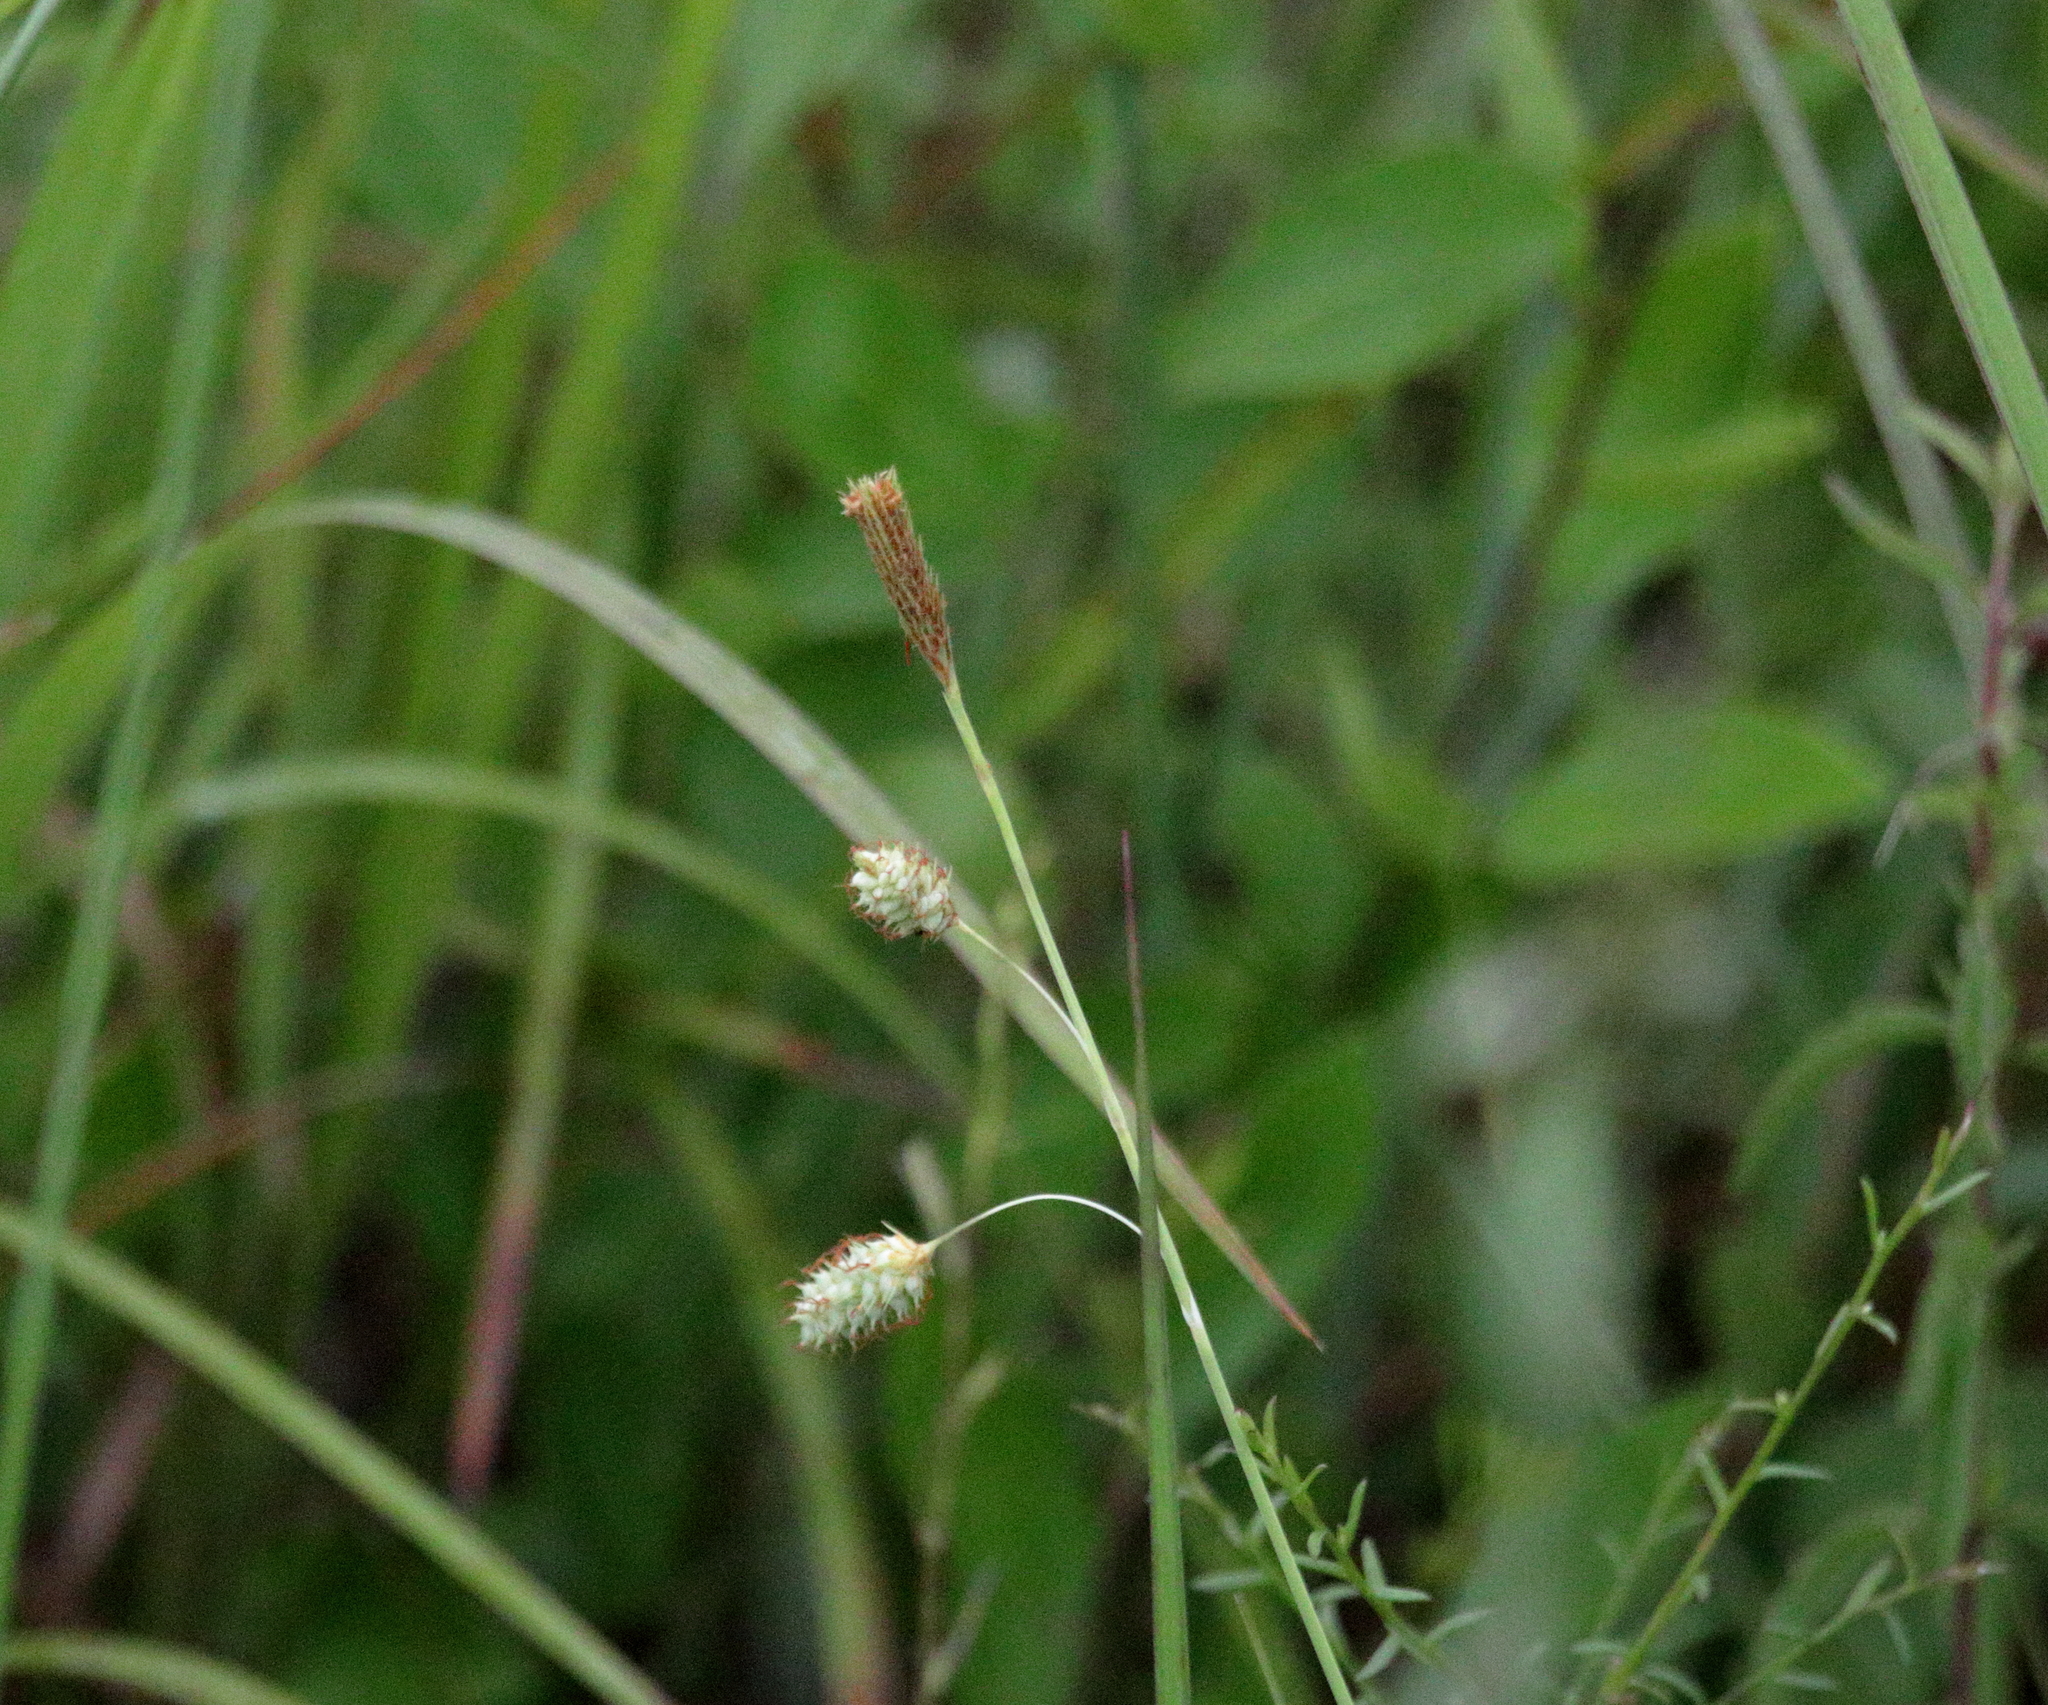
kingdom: Plantae
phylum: Tracheophyta
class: Liliopsida
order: Poales
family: Cyperaceae
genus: Carex
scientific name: Carex glaucescens
